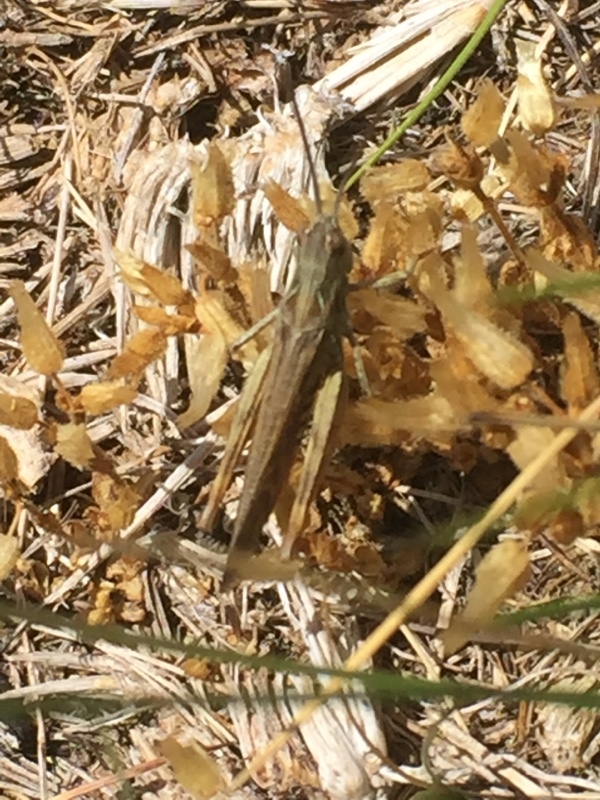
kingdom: Animalia
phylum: Arthropoda
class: Insecta
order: Orthoptera
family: Acrididae
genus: Chorthippus
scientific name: Chorthippus yersini
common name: Yersin's grasshopper
